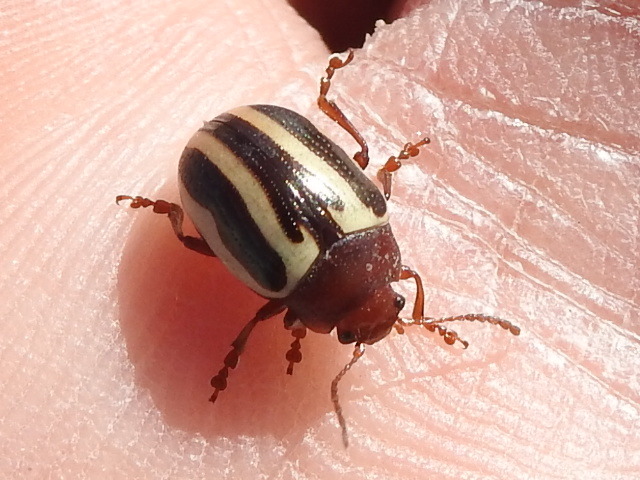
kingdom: Animalia
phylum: Arthropoda
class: Insecta
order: Coleoptera
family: Chrysomelidae
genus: Calligrapha
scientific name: Calligrapha
